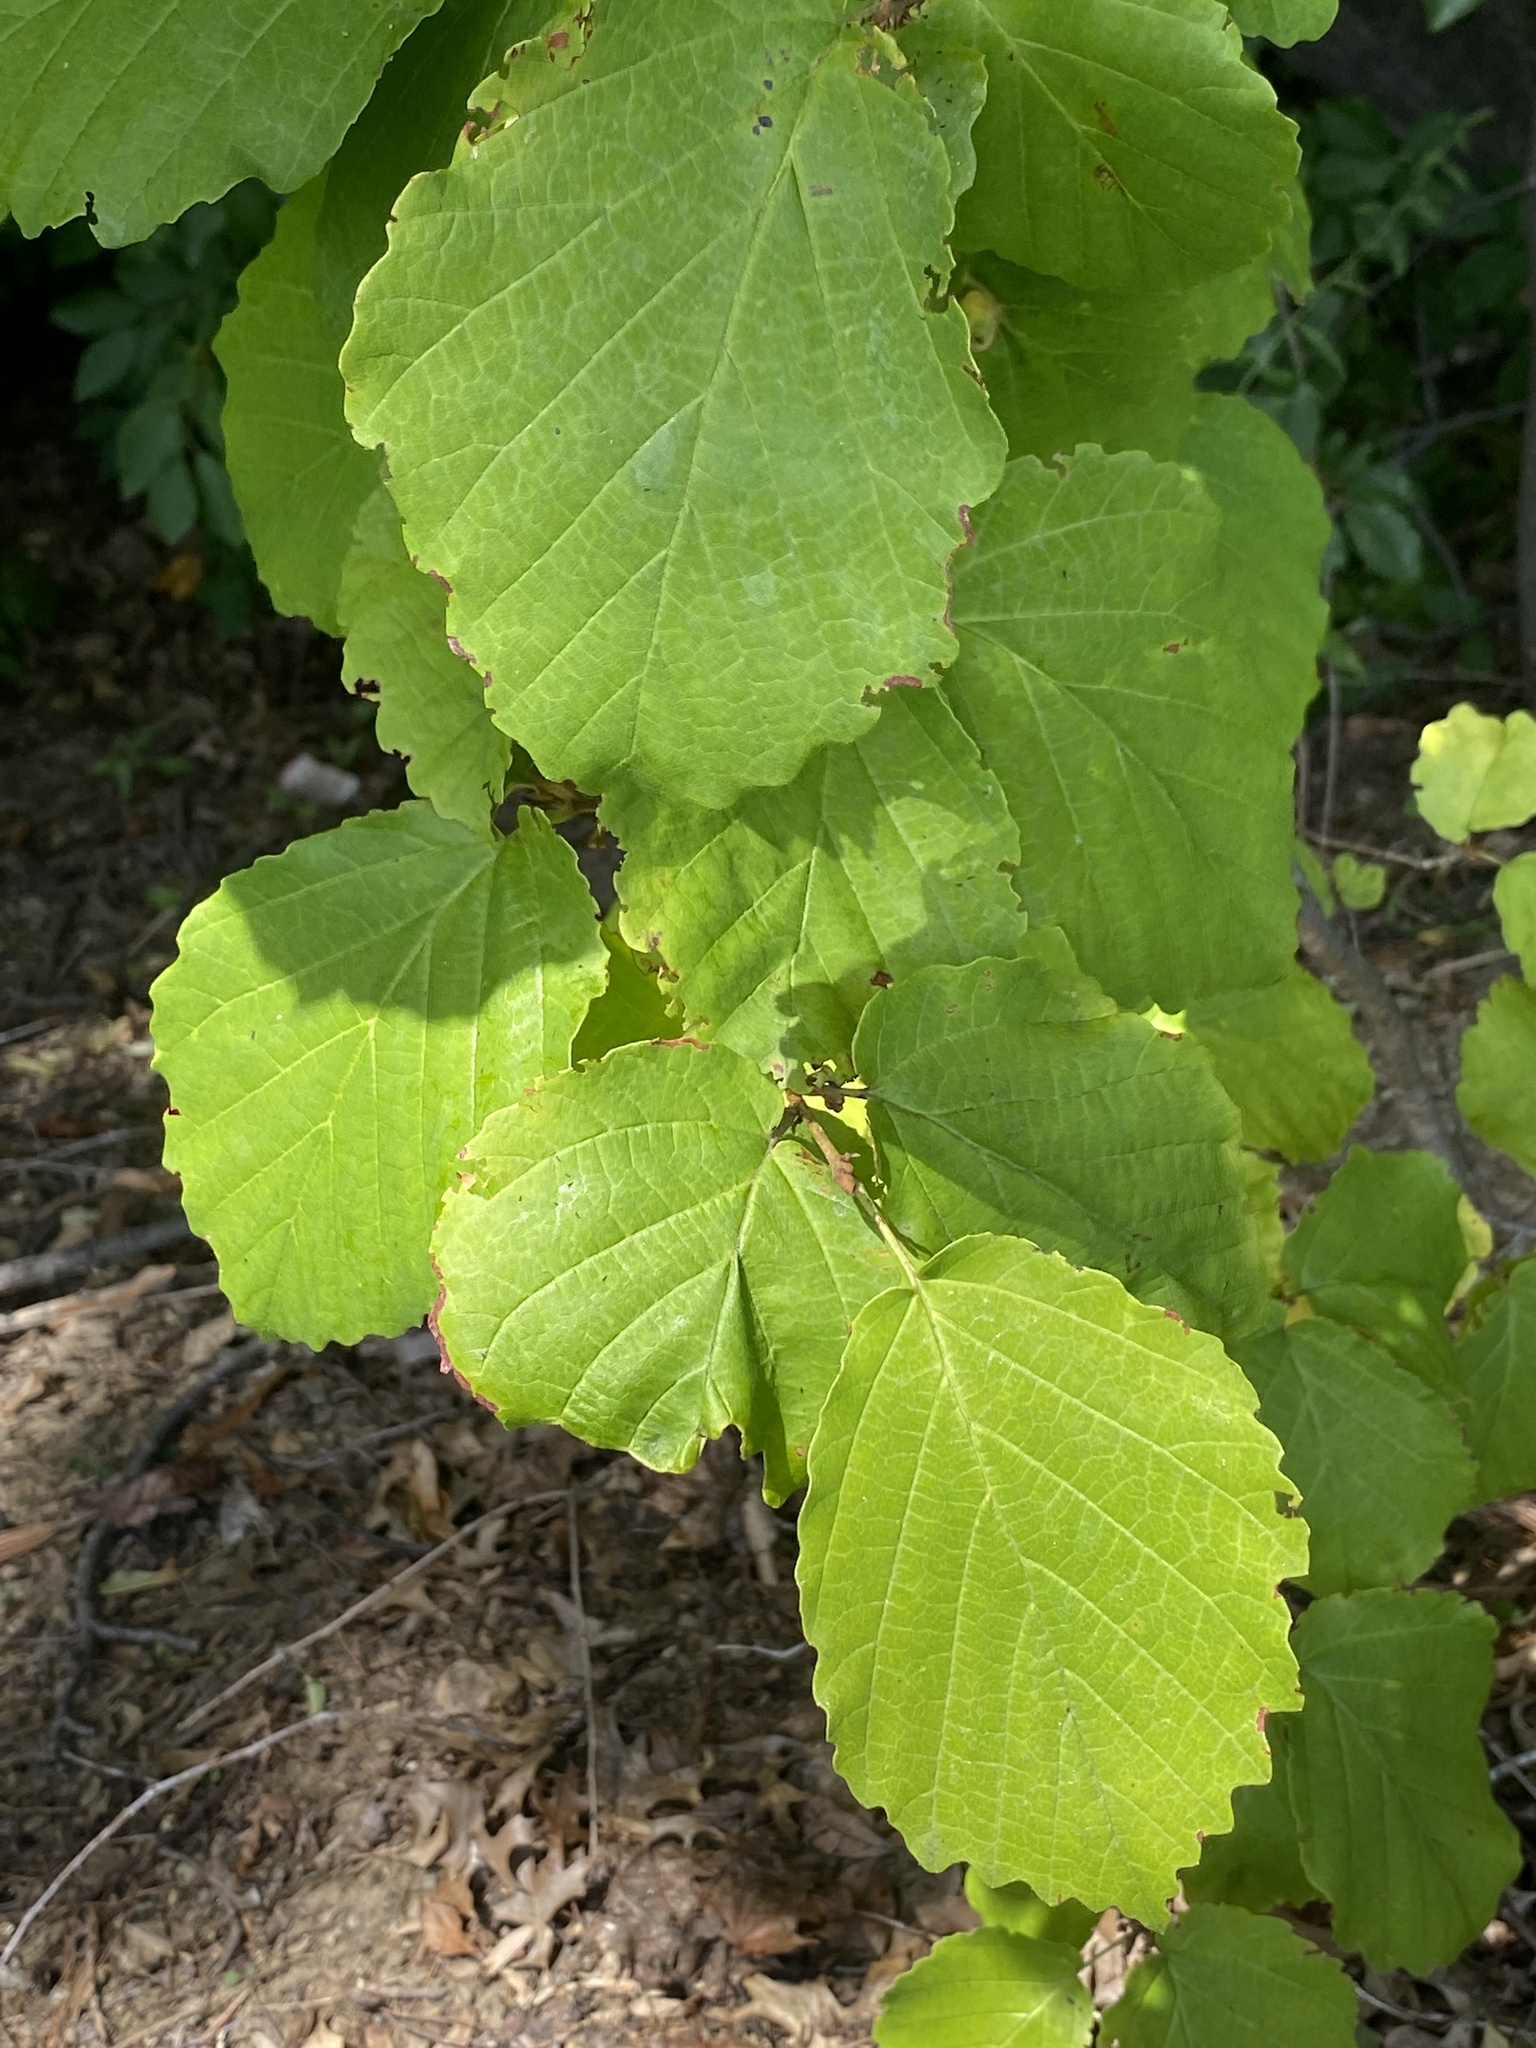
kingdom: Plantae
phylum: Tracheophyta
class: Magnoliopsida
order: Saxifragales
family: Hamamelidaceae
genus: Hamamelis
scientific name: Hamamelis virginiana
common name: Witch-hazel
